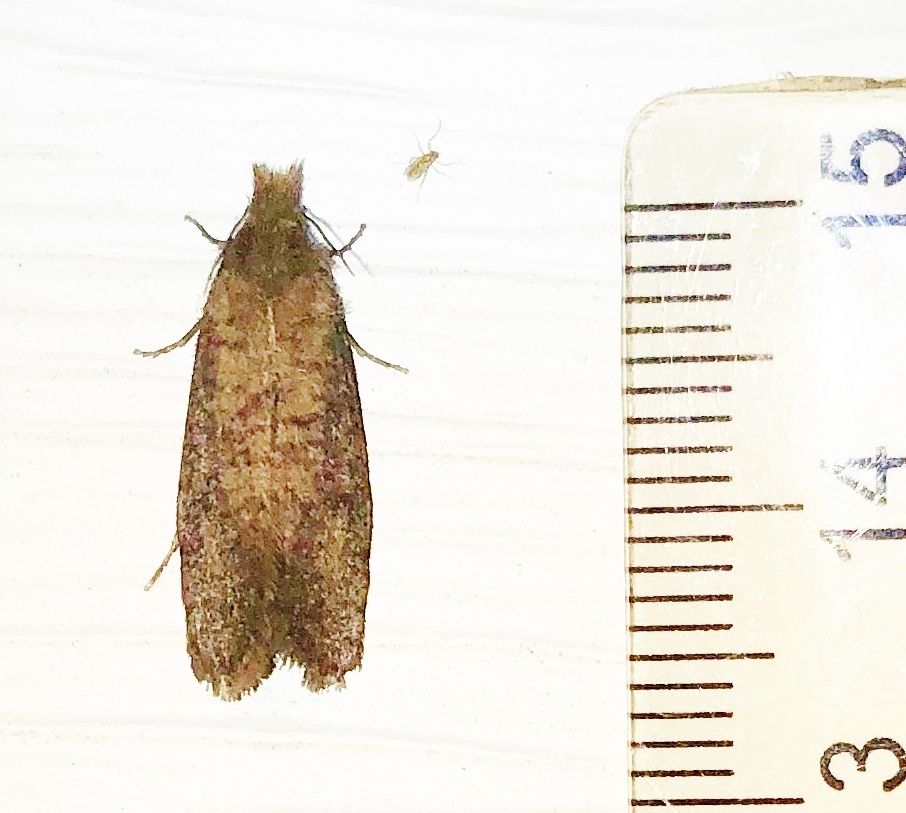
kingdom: Animalia
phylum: Arthropoda
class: Insecta
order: Lepidoptera
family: Tineidae
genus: Acrolophus
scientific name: Acrolophus propinqua
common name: Walsingham's grass tubeworm moth
